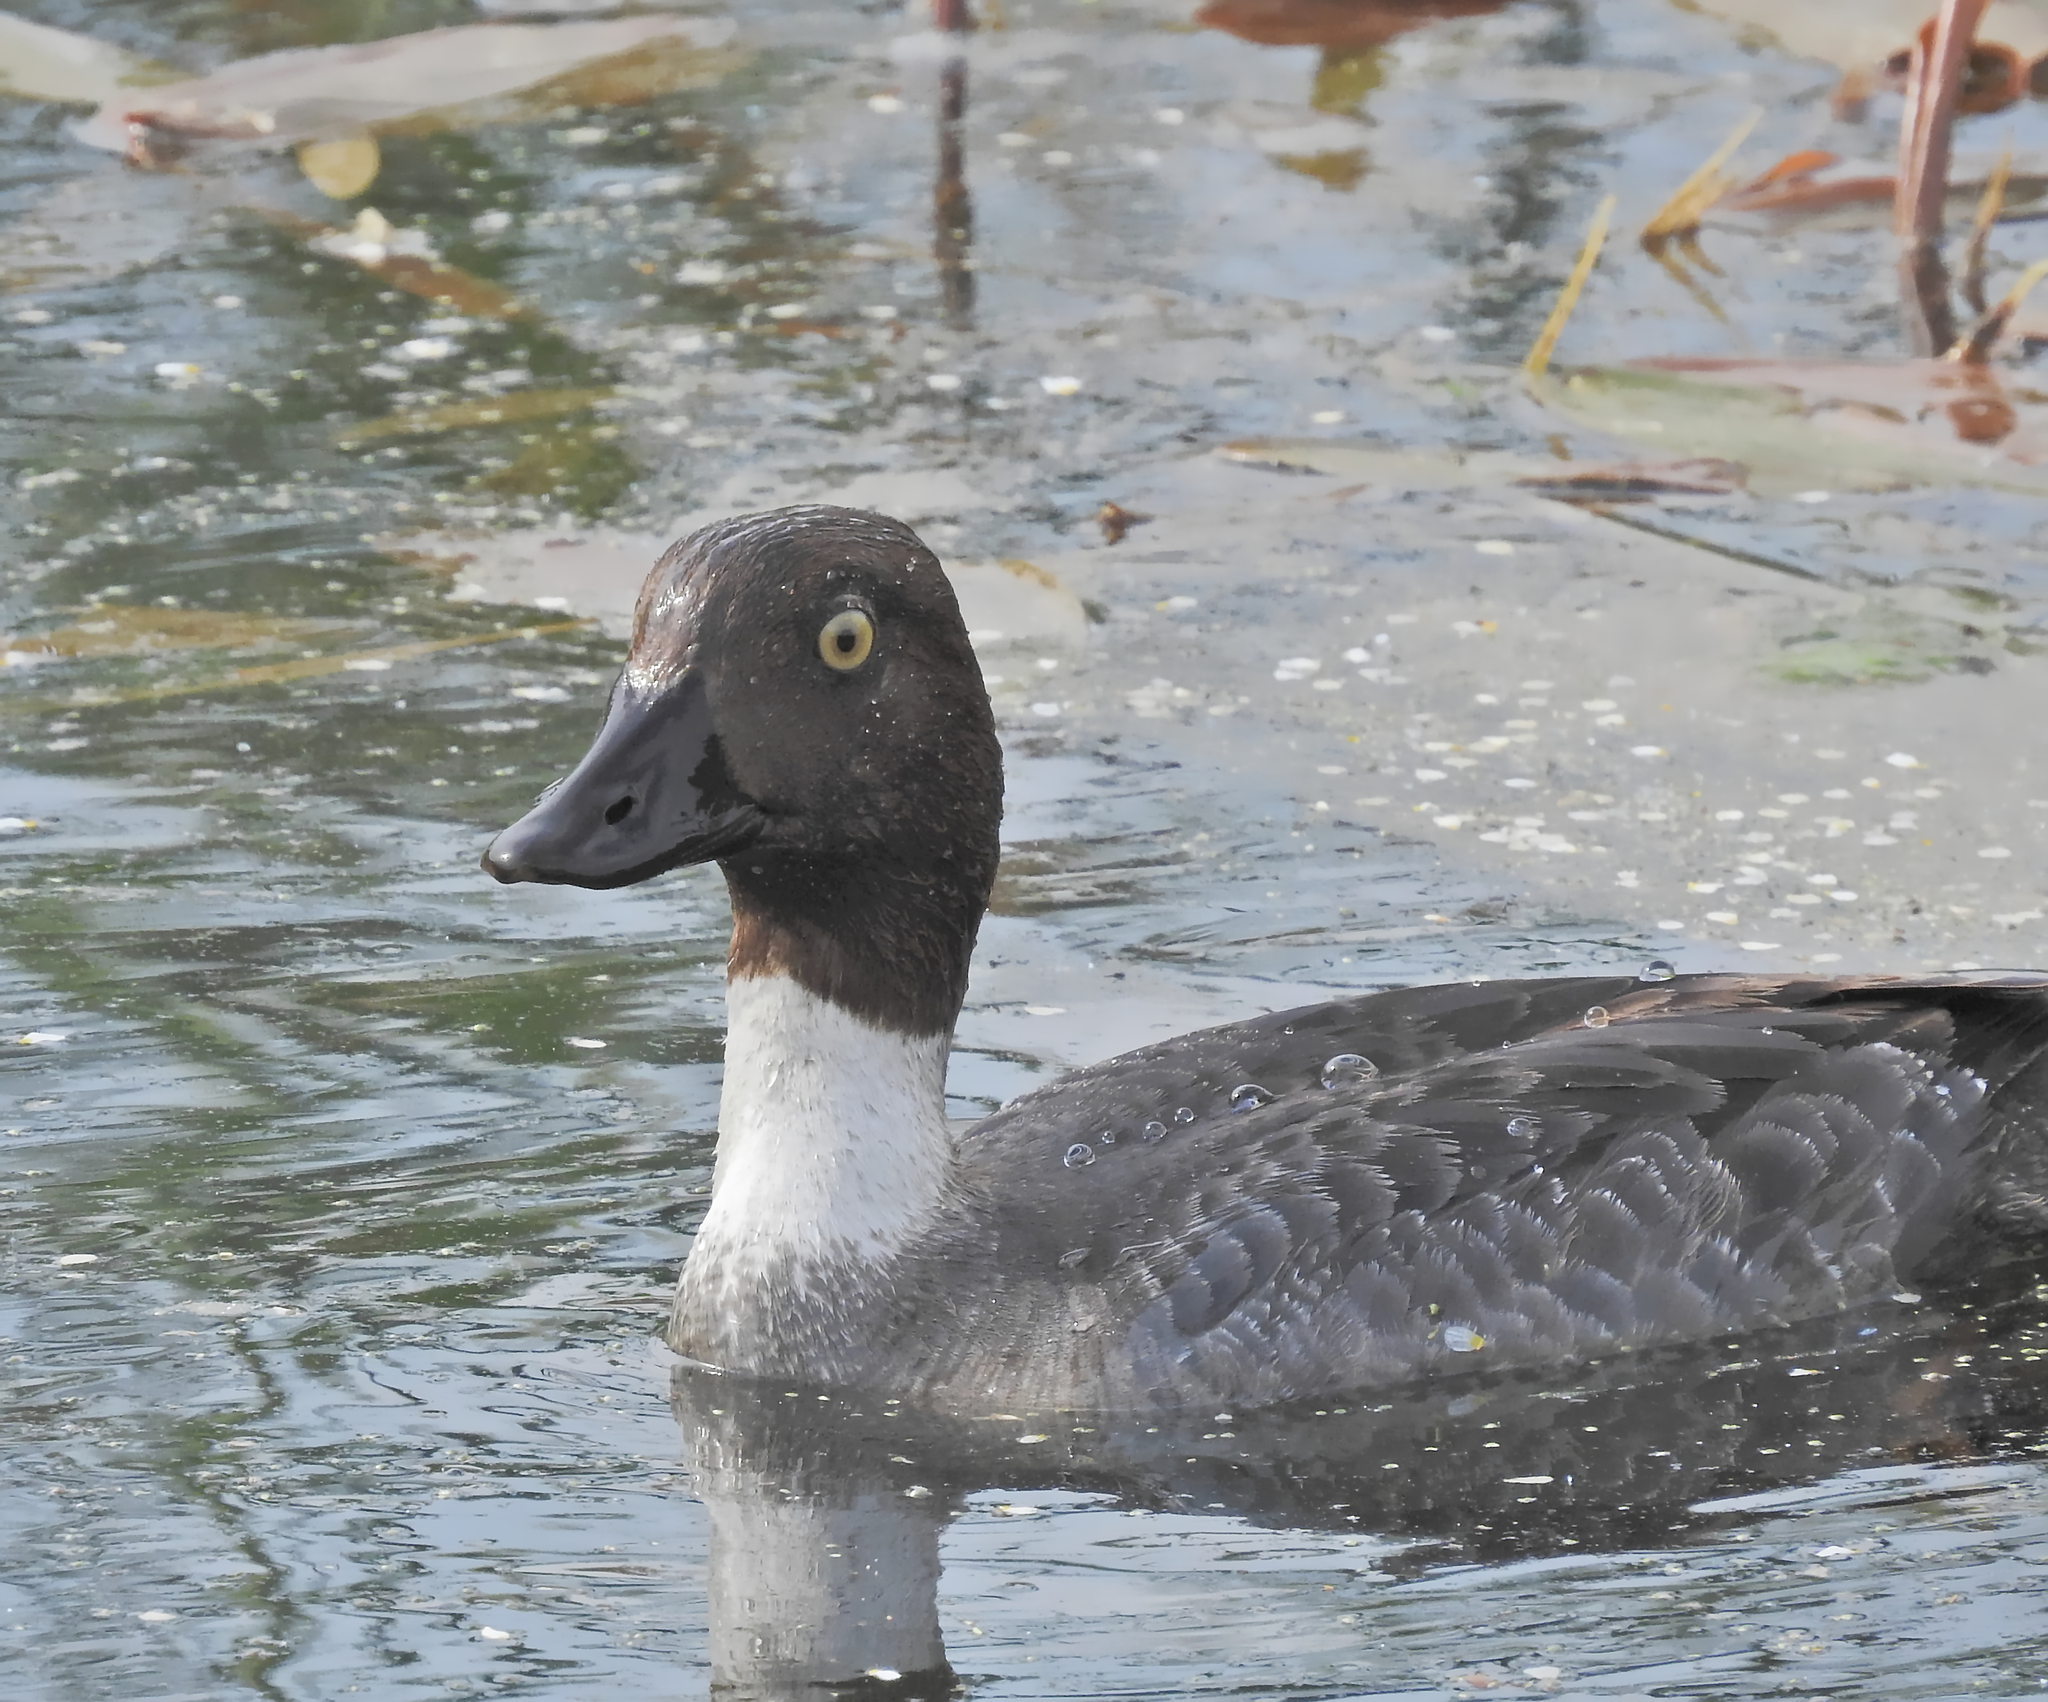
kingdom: Animalia
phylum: Chordata
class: Aves
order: Anseriformes
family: Anatidae
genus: Bucephala
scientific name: Bucephala clangula
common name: Common goldeneye
